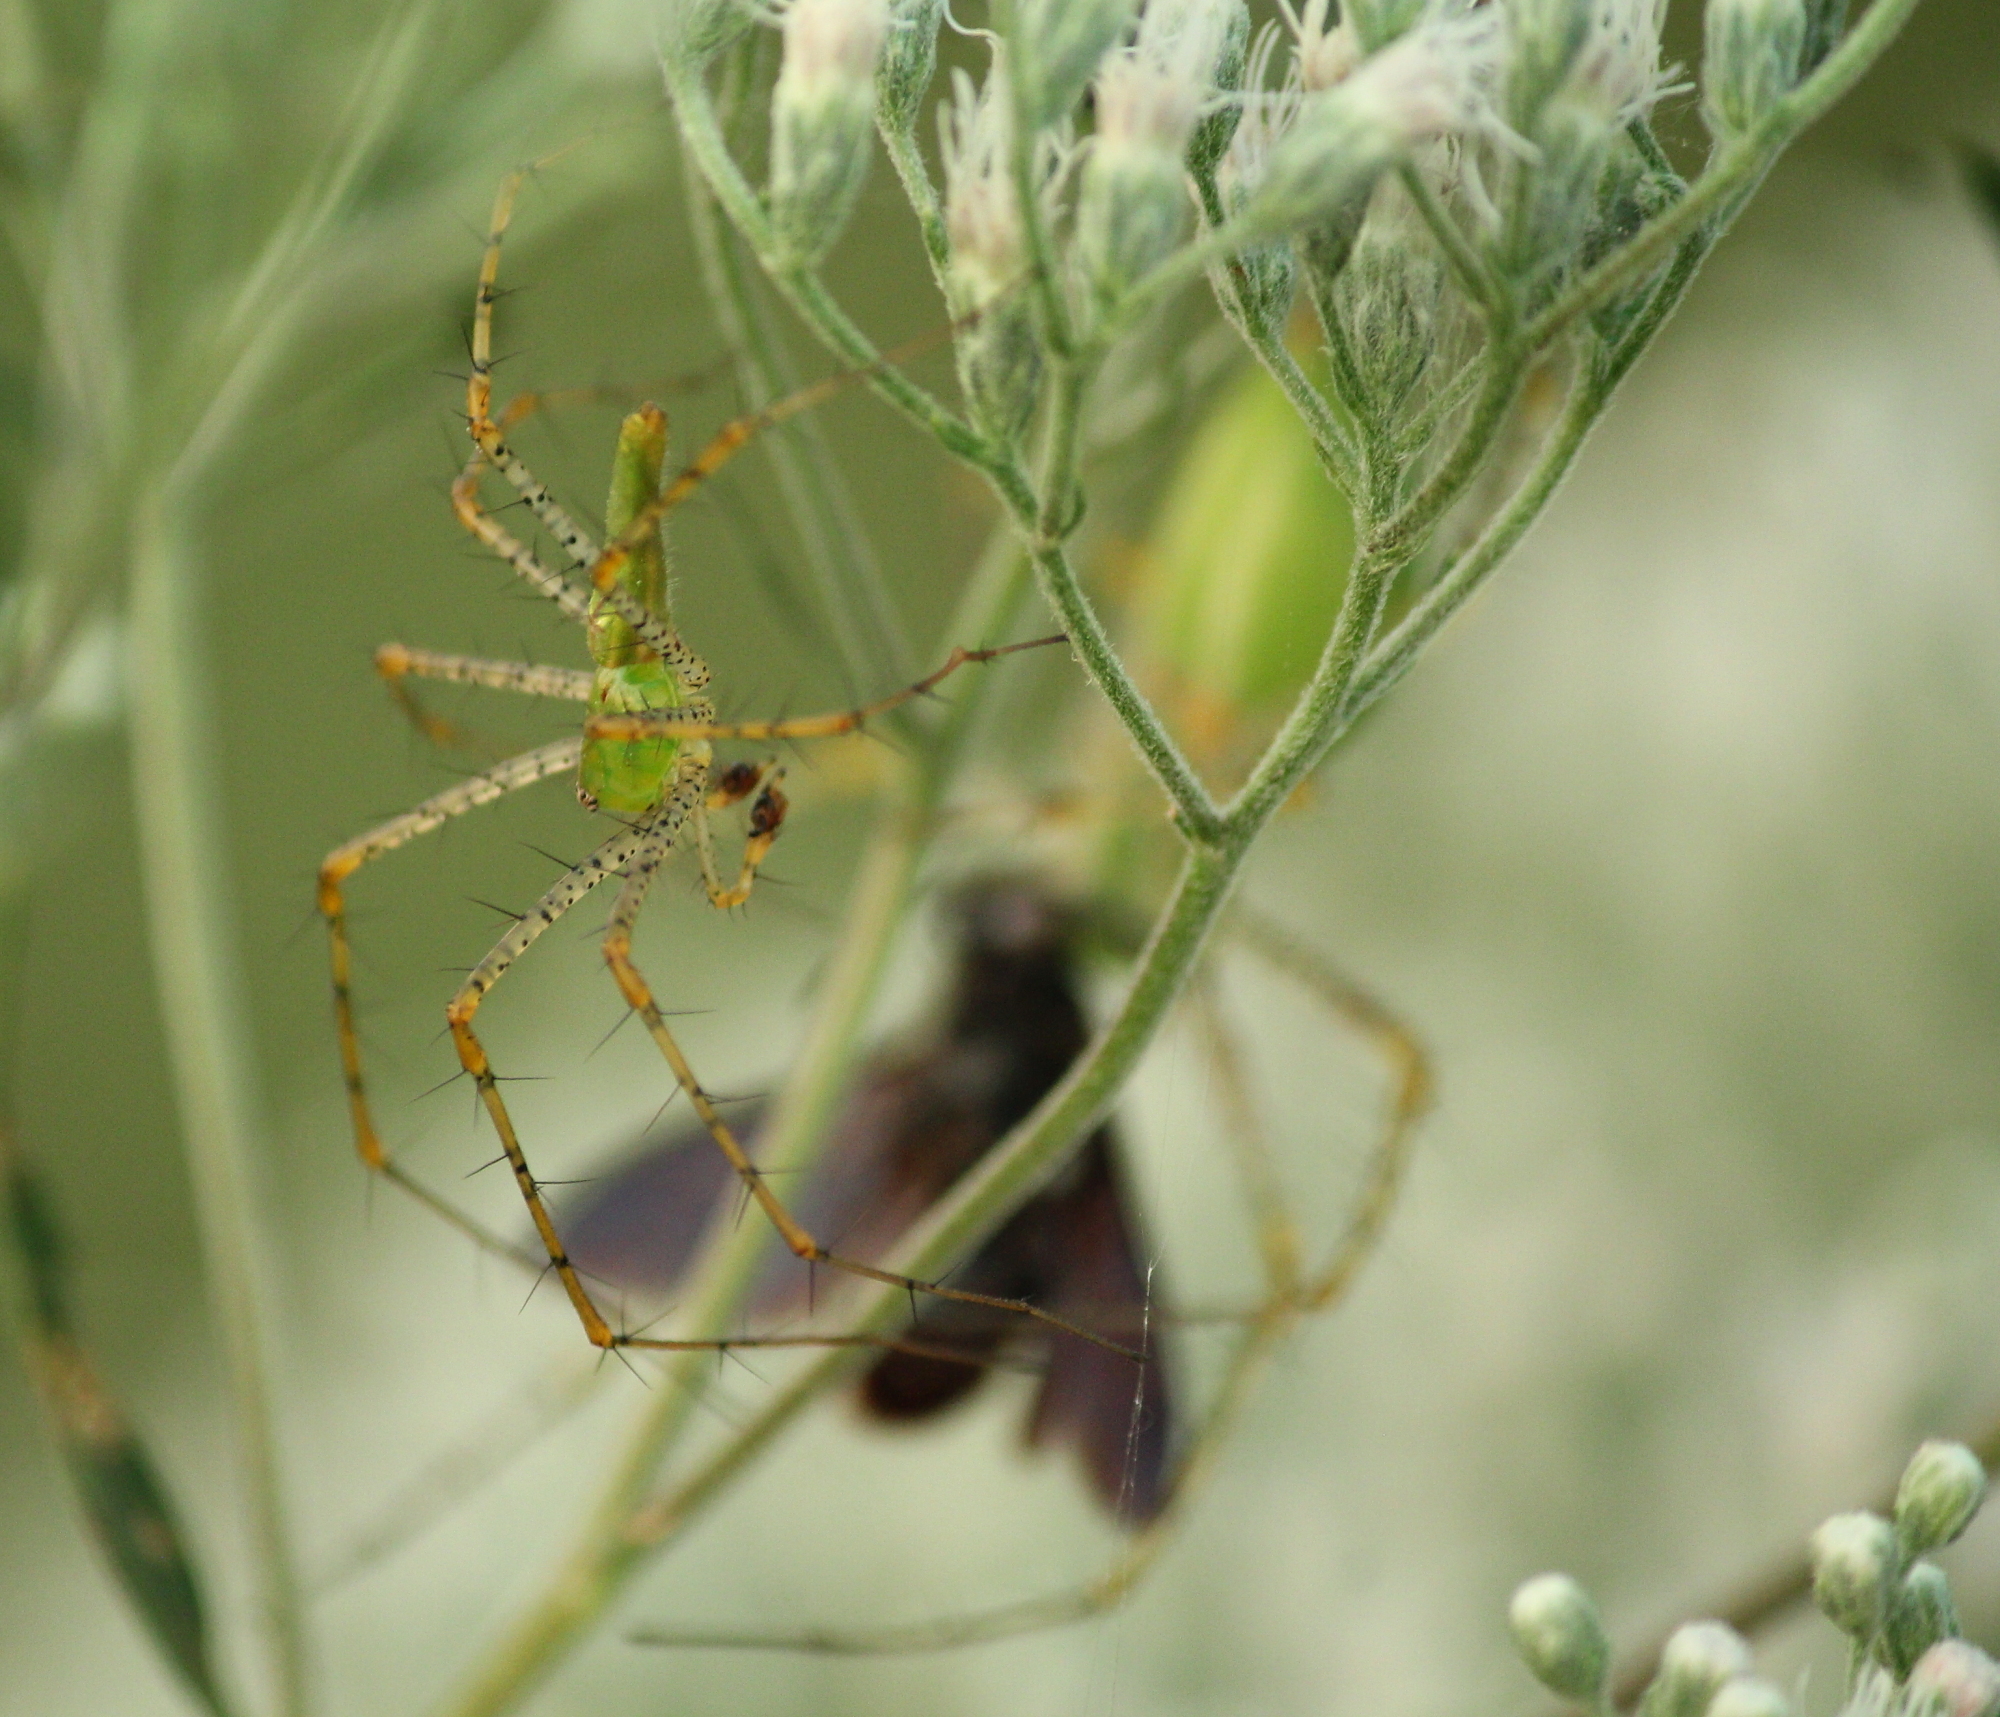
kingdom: Animalia
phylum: Arthropoda
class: Arachnida
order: Araneae
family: Oxyopidae
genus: Peucetia
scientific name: Peucetia viridans
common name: Lynx spiders
